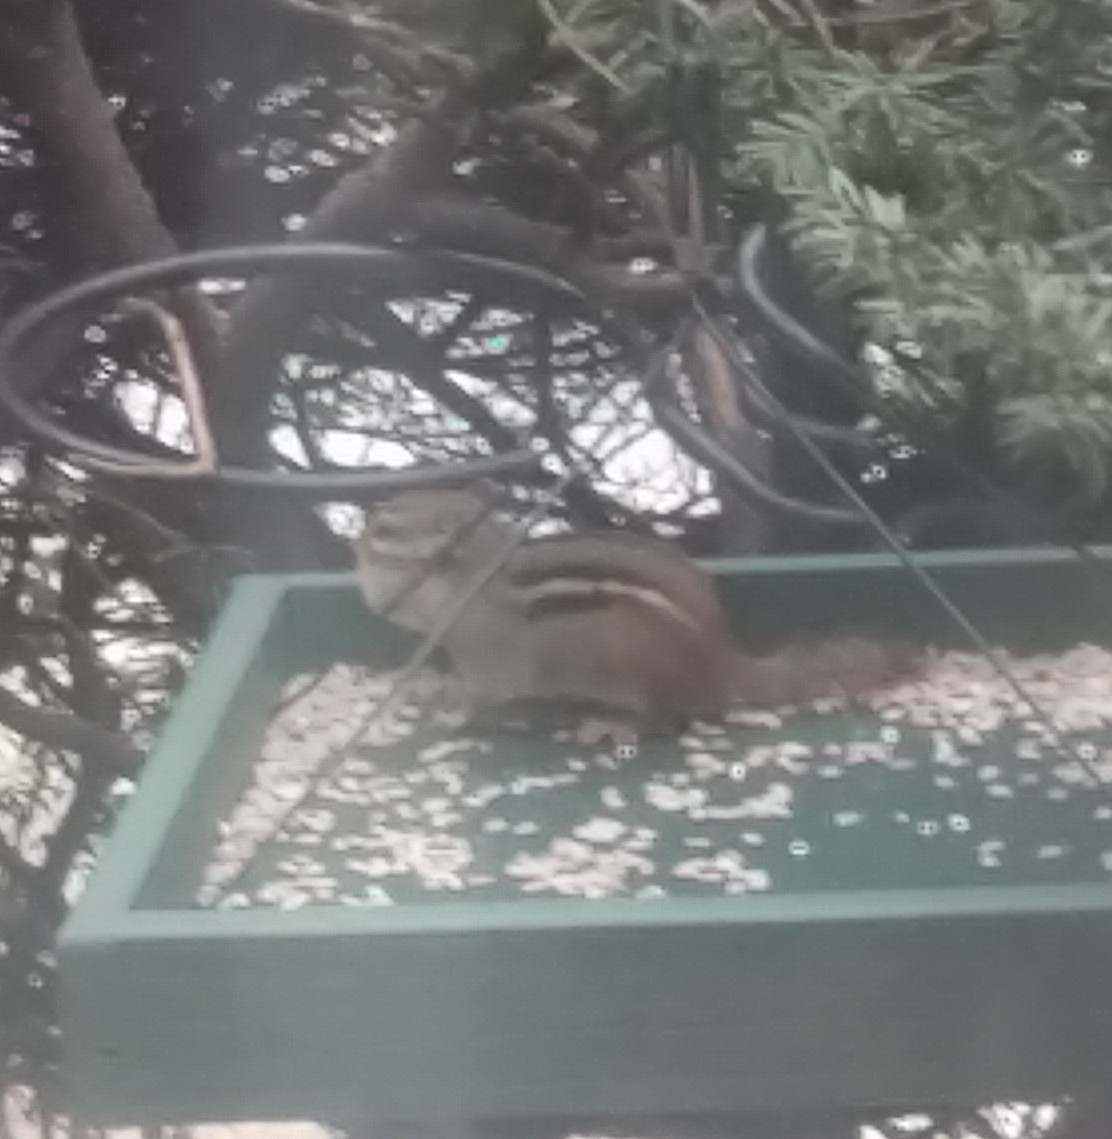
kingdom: Animalia
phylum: Chordata
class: Mammalia
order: Rodentia
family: Sciuridae
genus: Tamias
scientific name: Tamias striatus
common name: Eastern chipmunk
